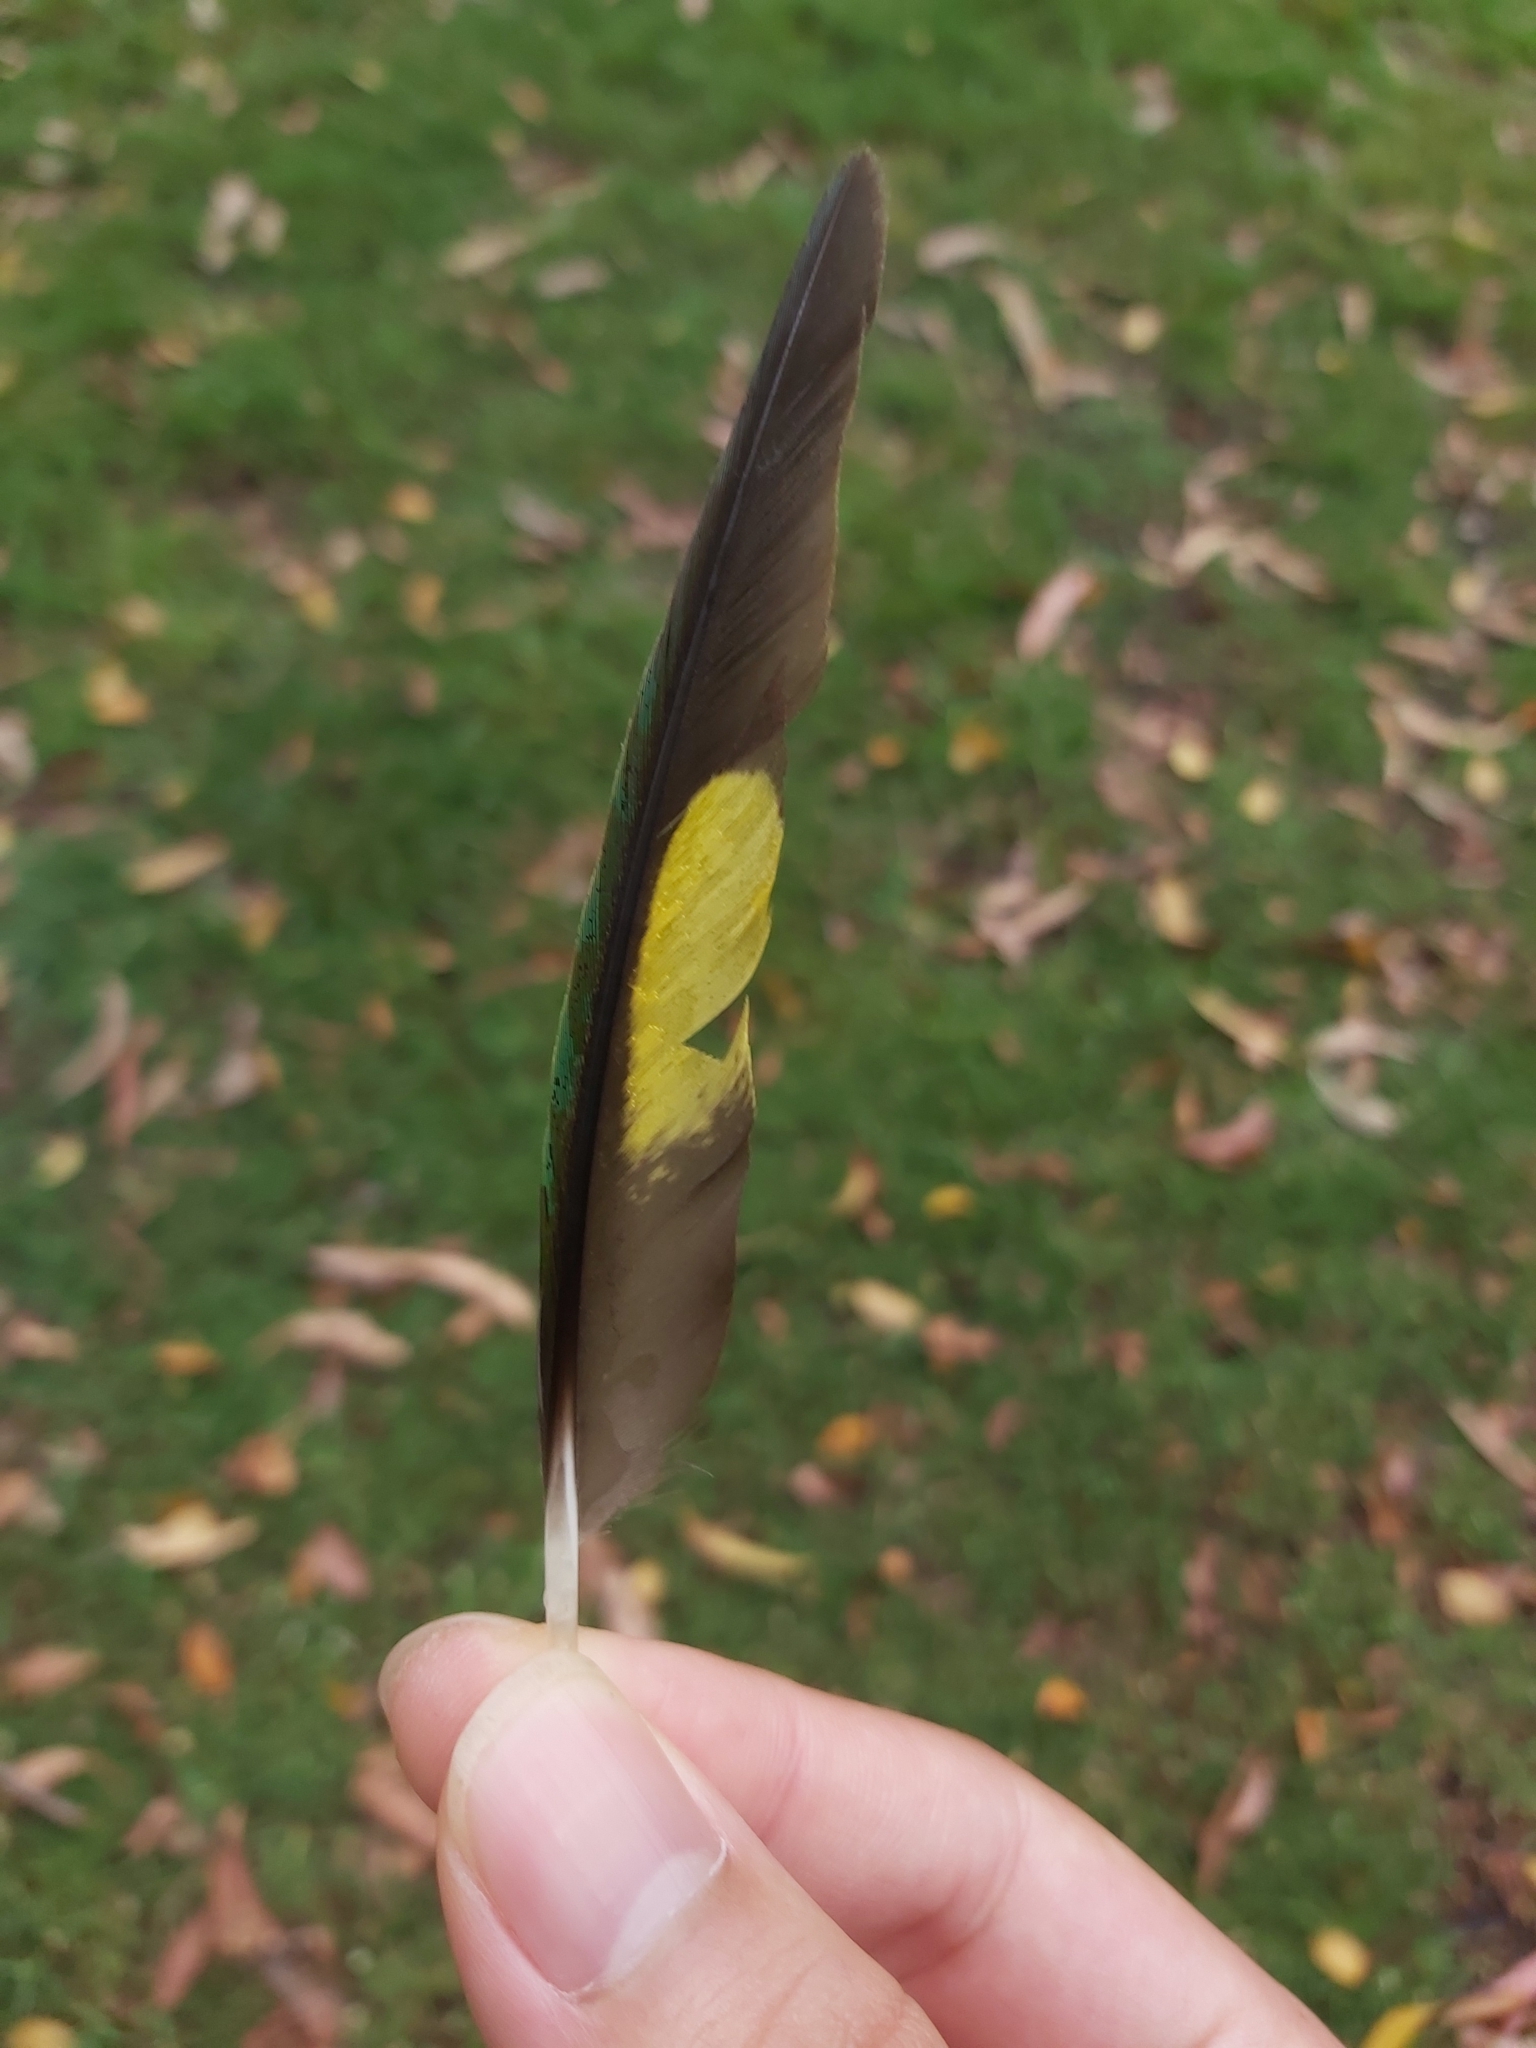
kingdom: Animalia
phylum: Chordata
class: Aves
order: Psittaciformes
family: Psittacidae
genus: Trichoglossus
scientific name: Trichoglossus haematodus
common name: Coconut lorikeet
